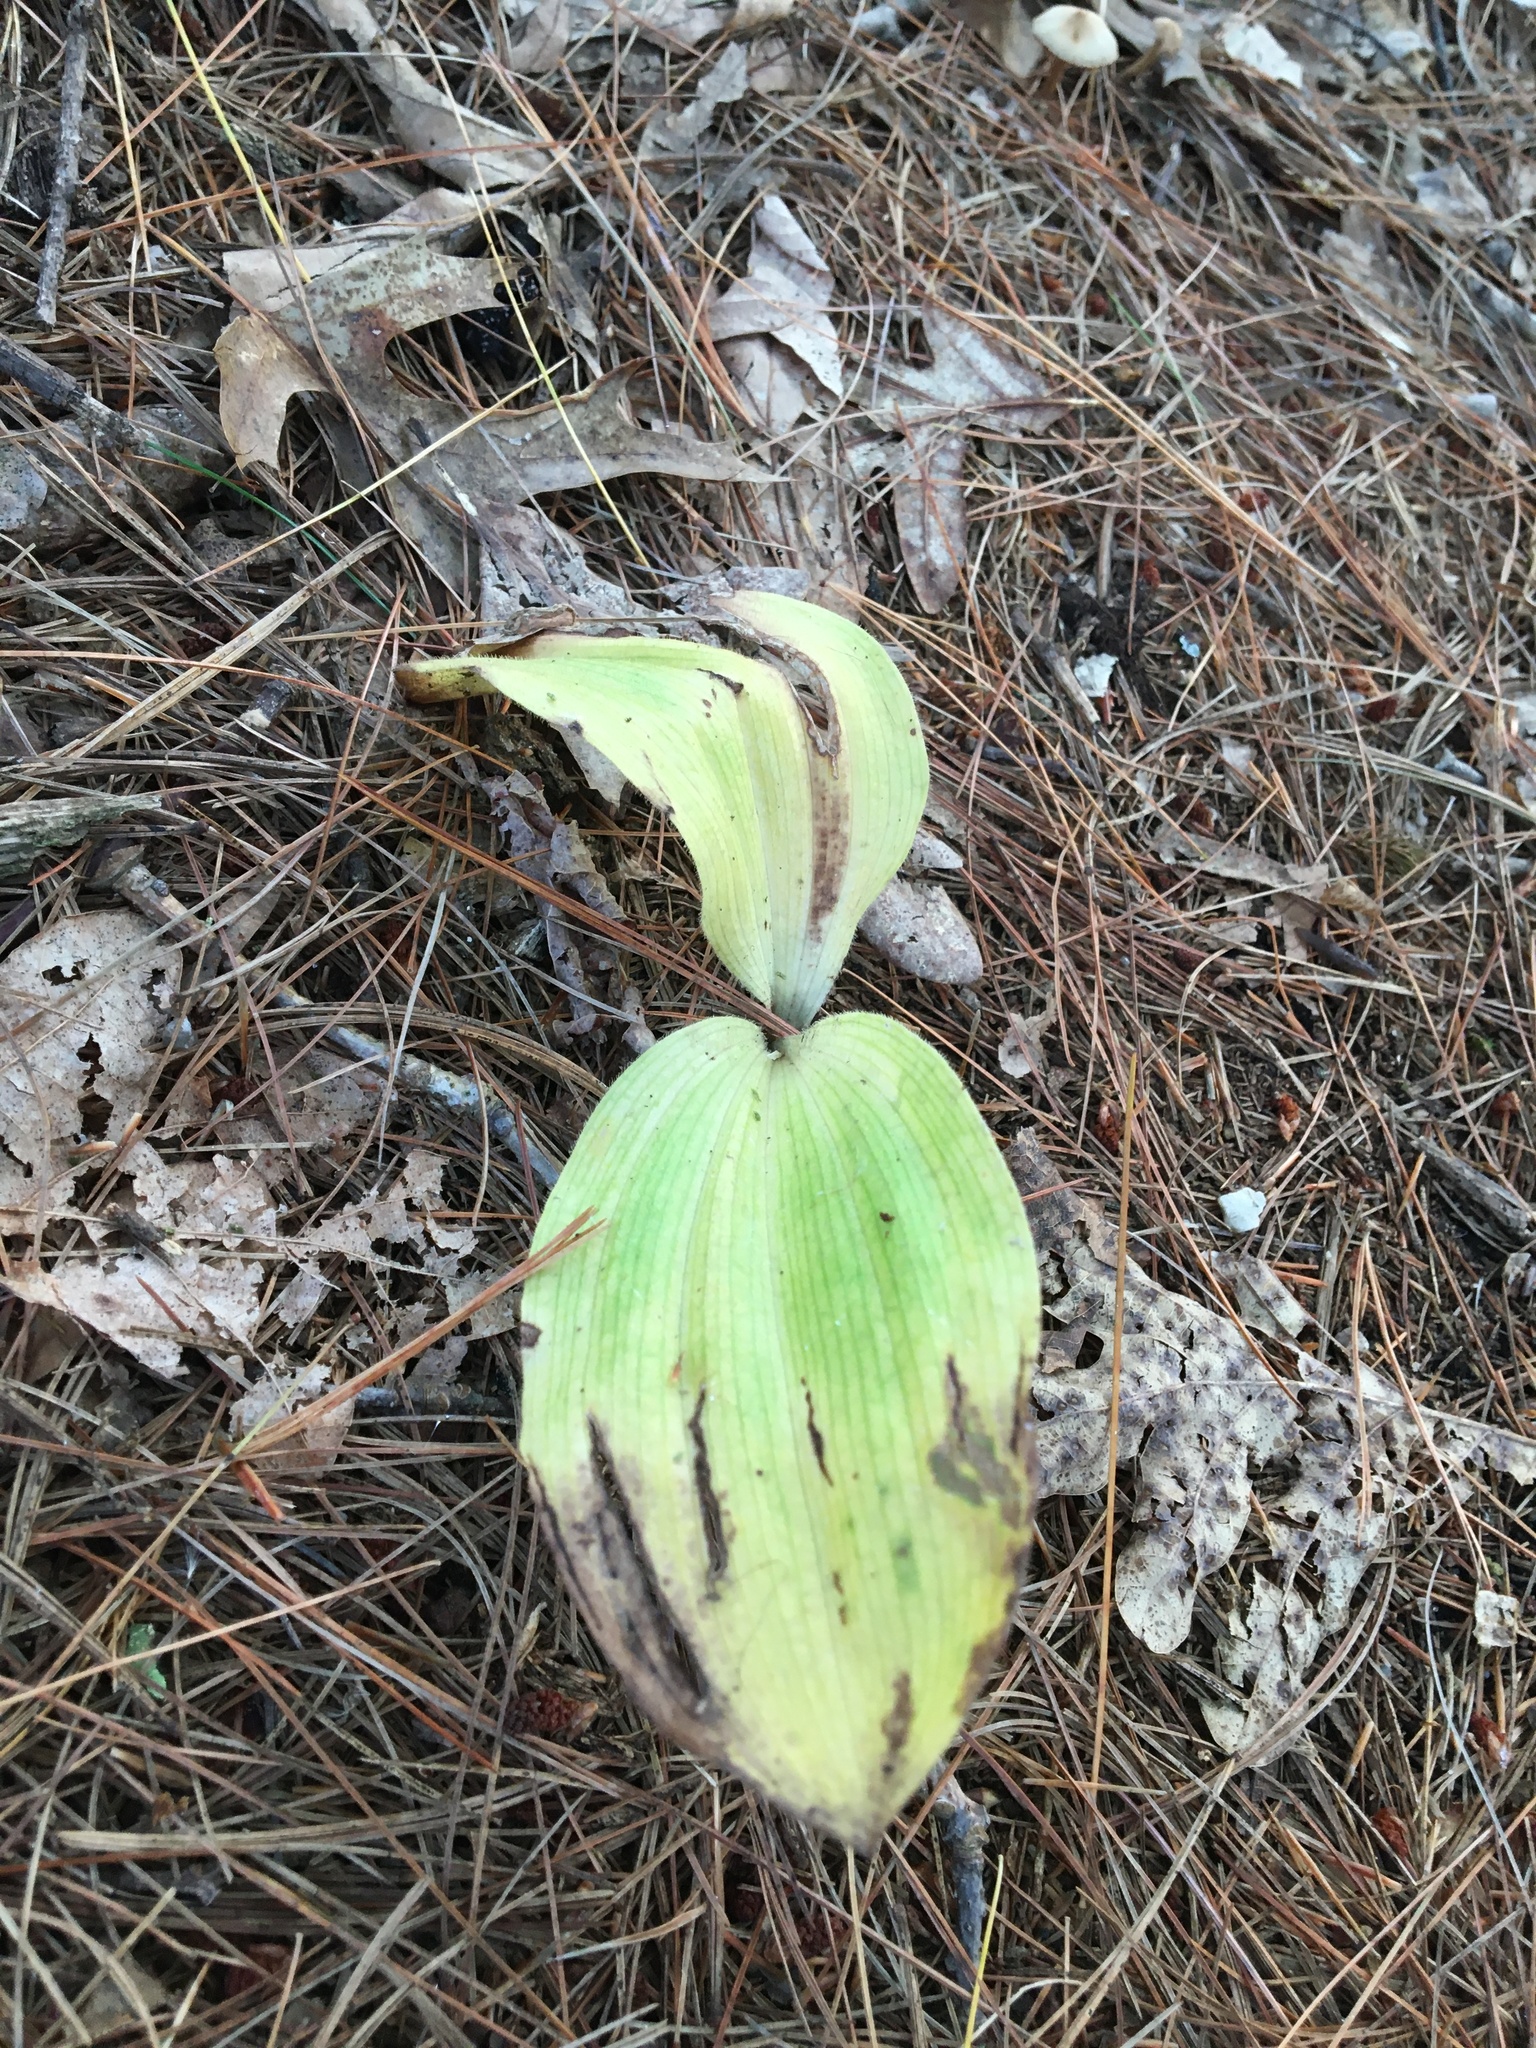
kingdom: Plantae
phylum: Tracheophyta
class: Liliopsida
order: Asparagales
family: Orchidaceae
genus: Cypripedium
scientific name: Cypripedium acaule
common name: Pink lady's-slipper
